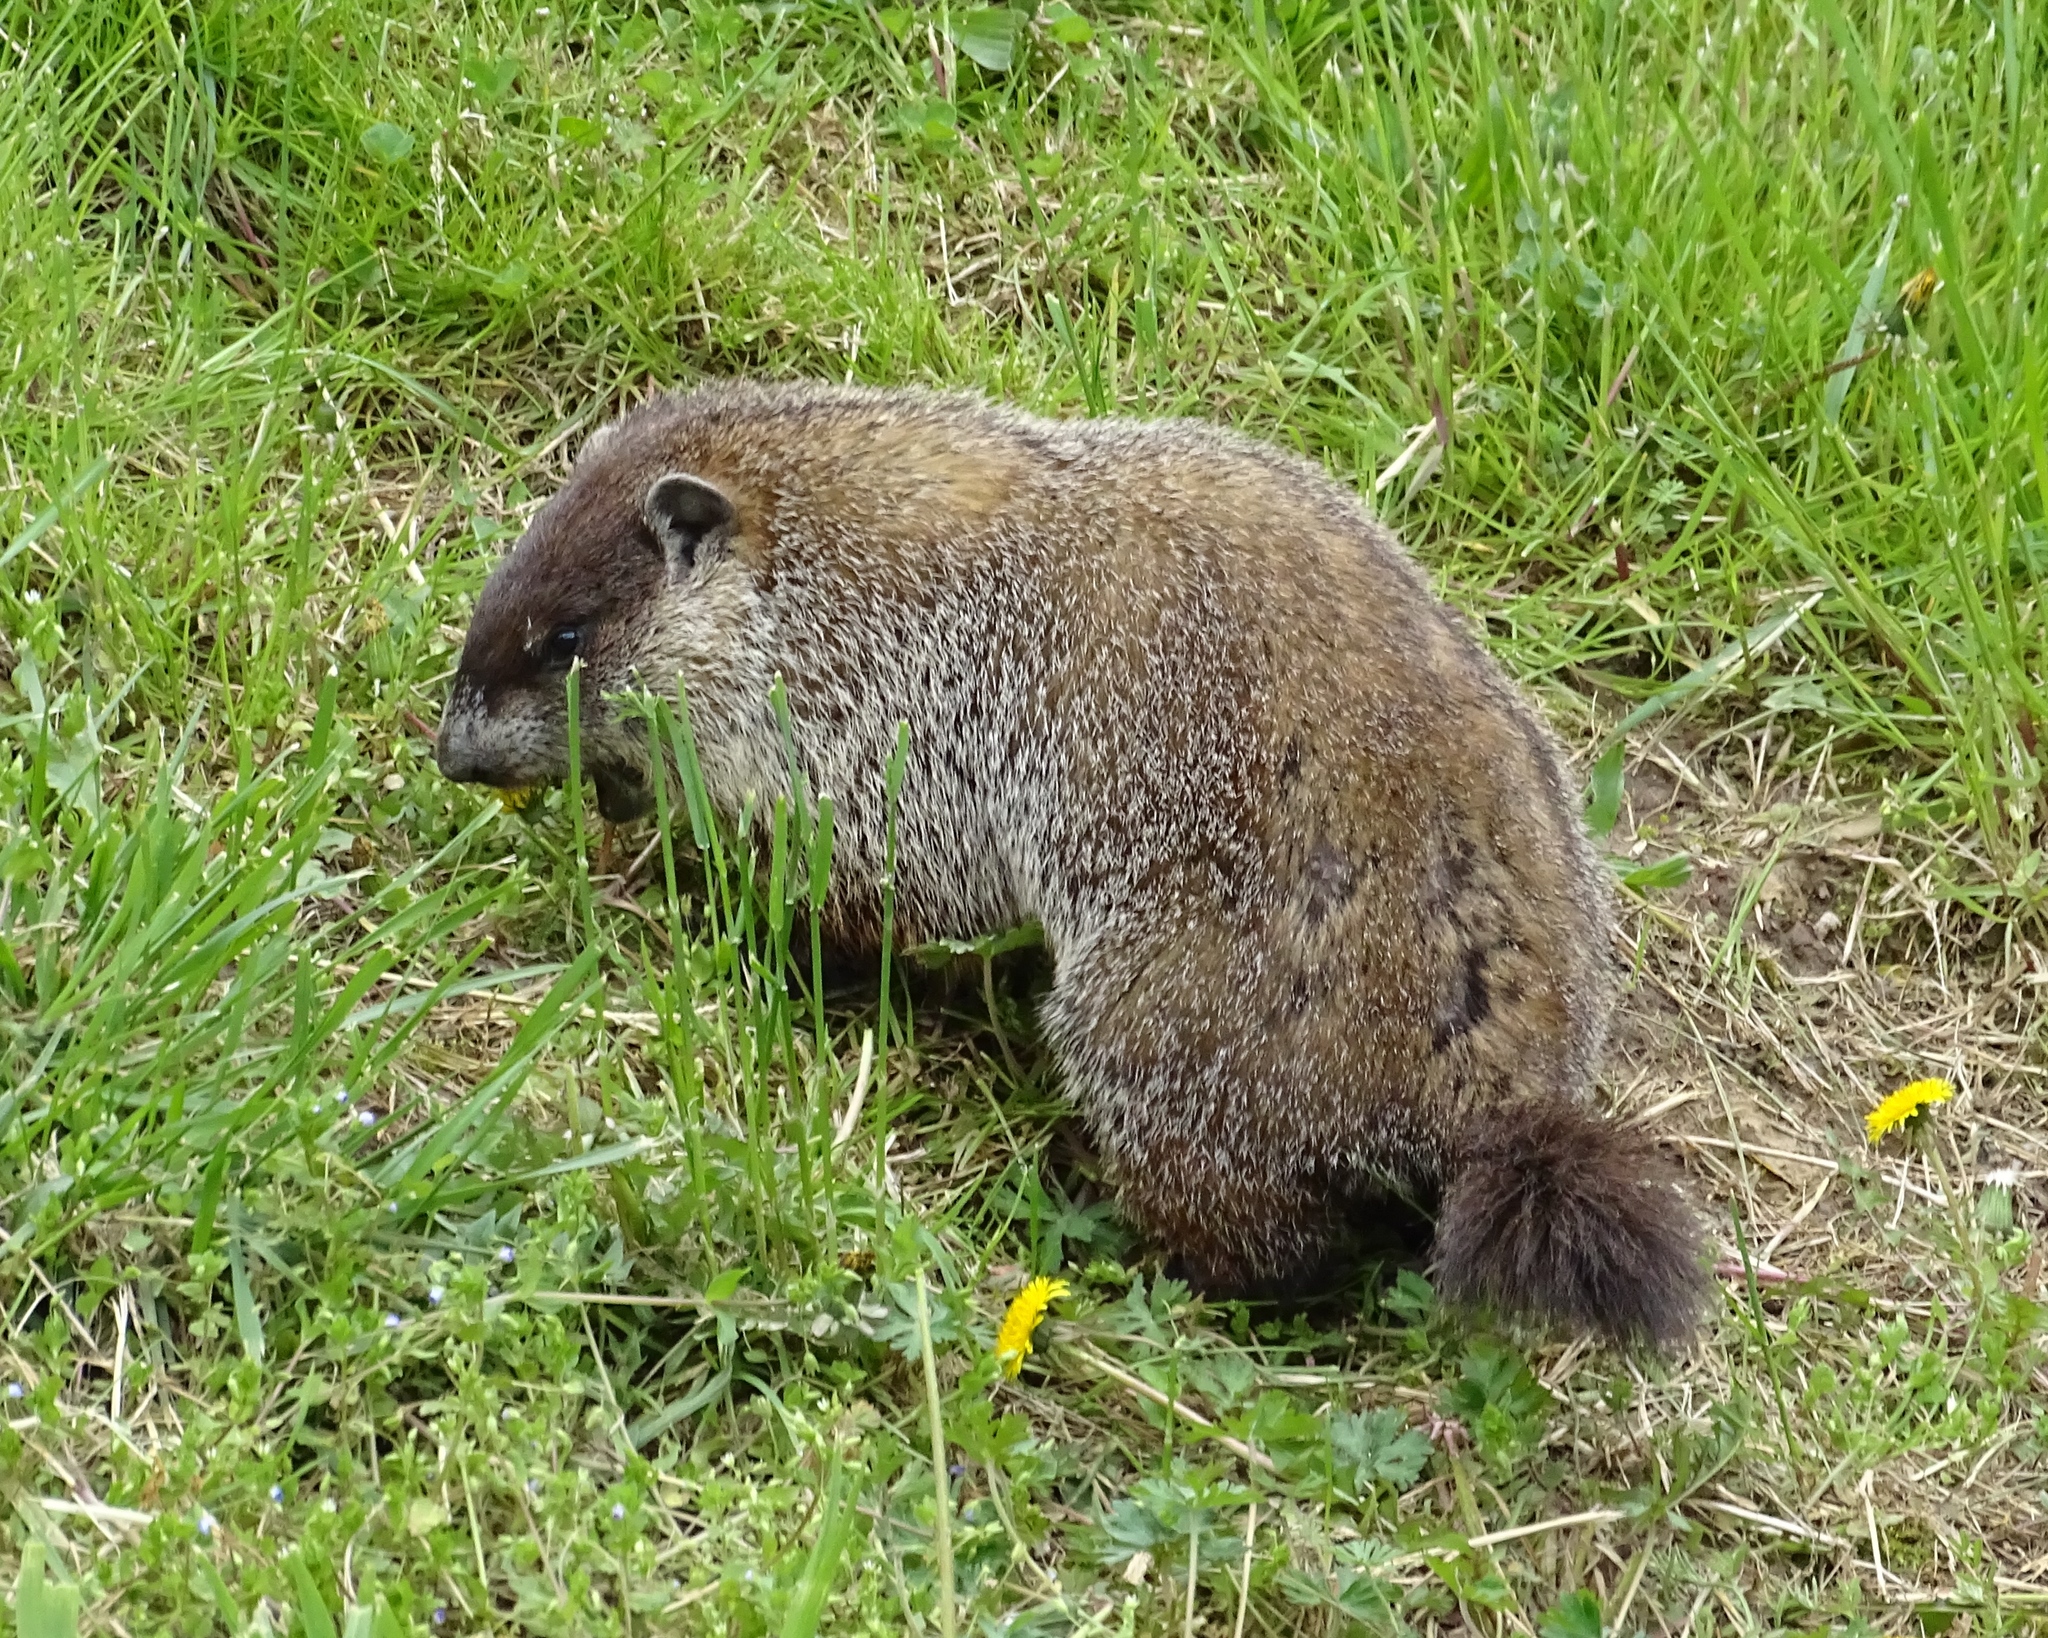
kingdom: Animalia
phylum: Chordata
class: Mammalia
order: Rodentia
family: Sciuridae
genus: Marmota
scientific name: Marmota monax
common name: Groundhog
